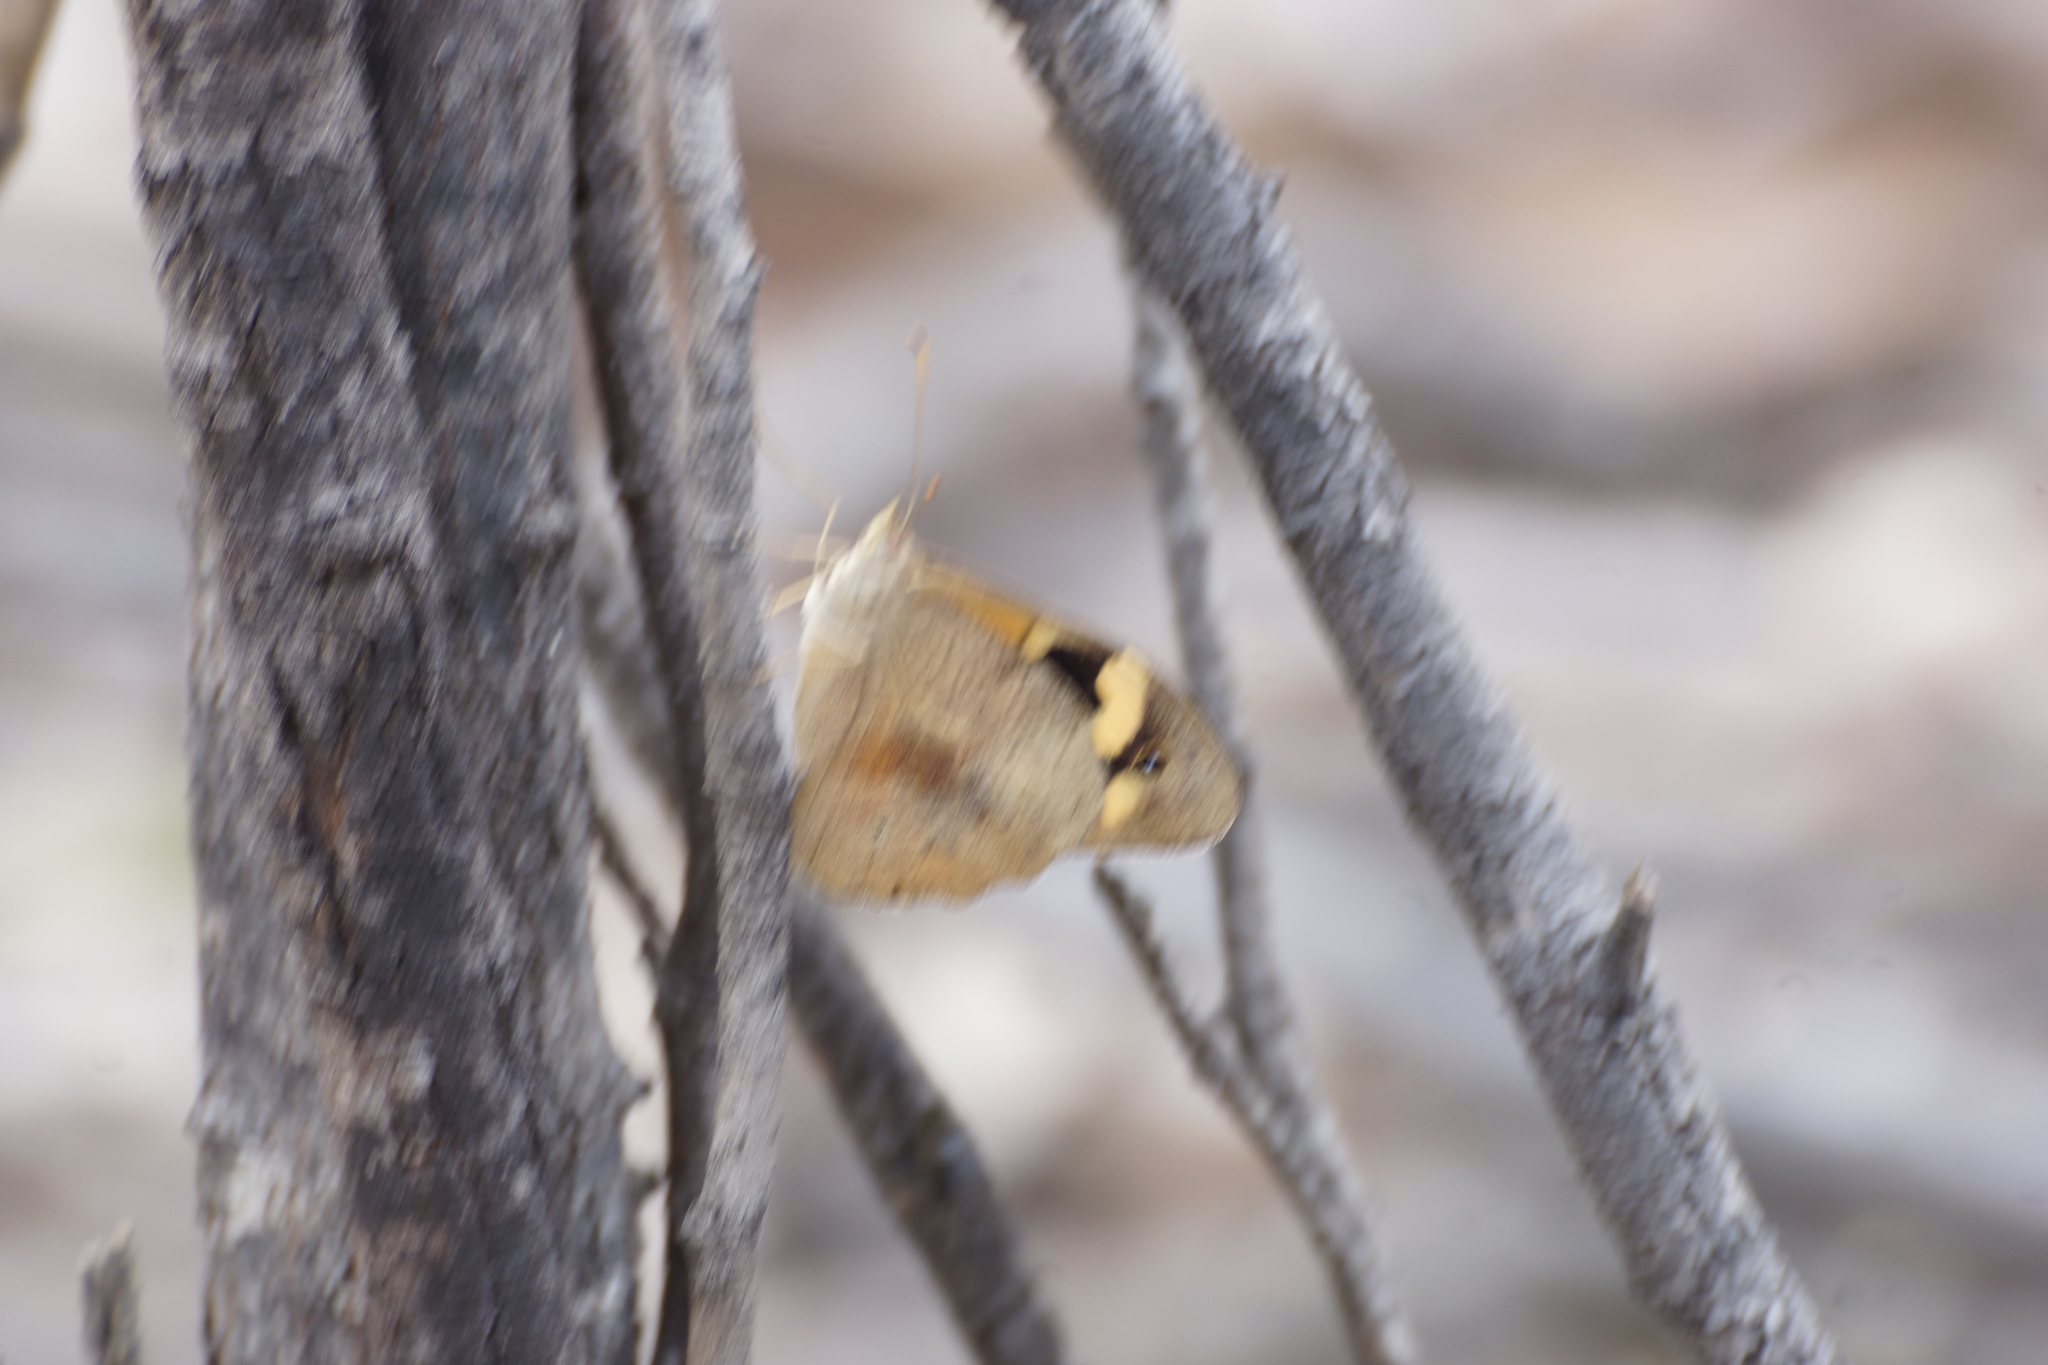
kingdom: Animalia
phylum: Arthropoda
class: Insecta
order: Lepidoptera
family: Nymphalidae
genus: Heteronympha
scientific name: Heteronympha merope
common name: Common brown
